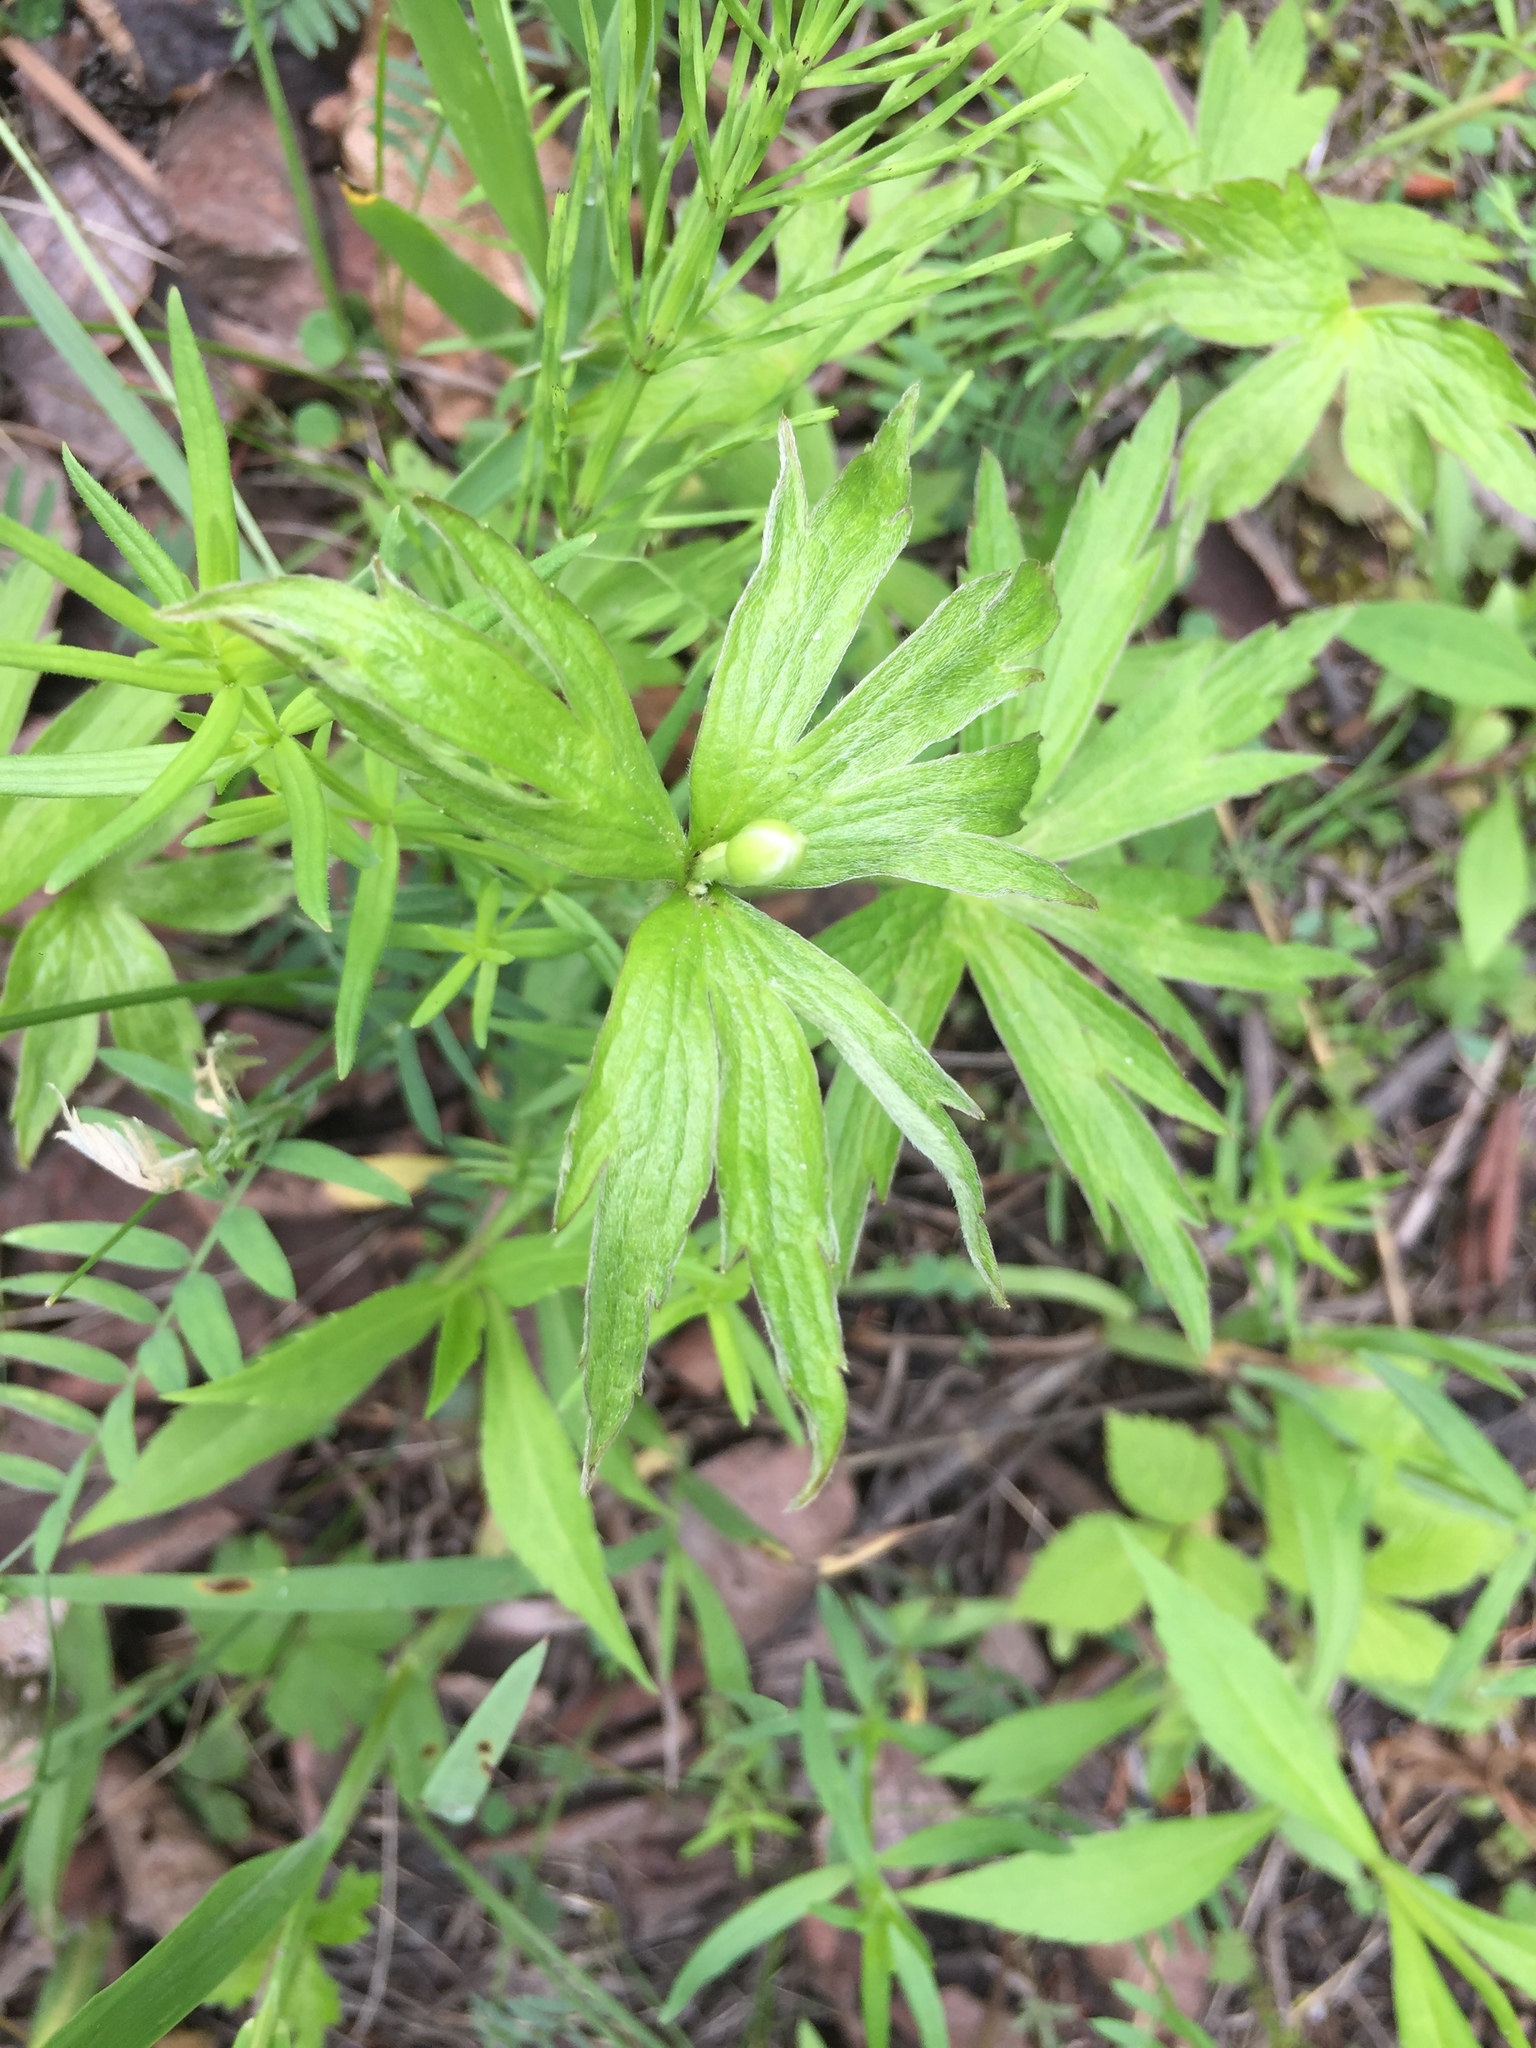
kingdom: Plantae
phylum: Tracheophyta
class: Magnoliopsida
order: Ranunculales
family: Ranunculaceae
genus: Anemonastrum
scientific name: Anemonastrum canadense
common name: Canada anemone
